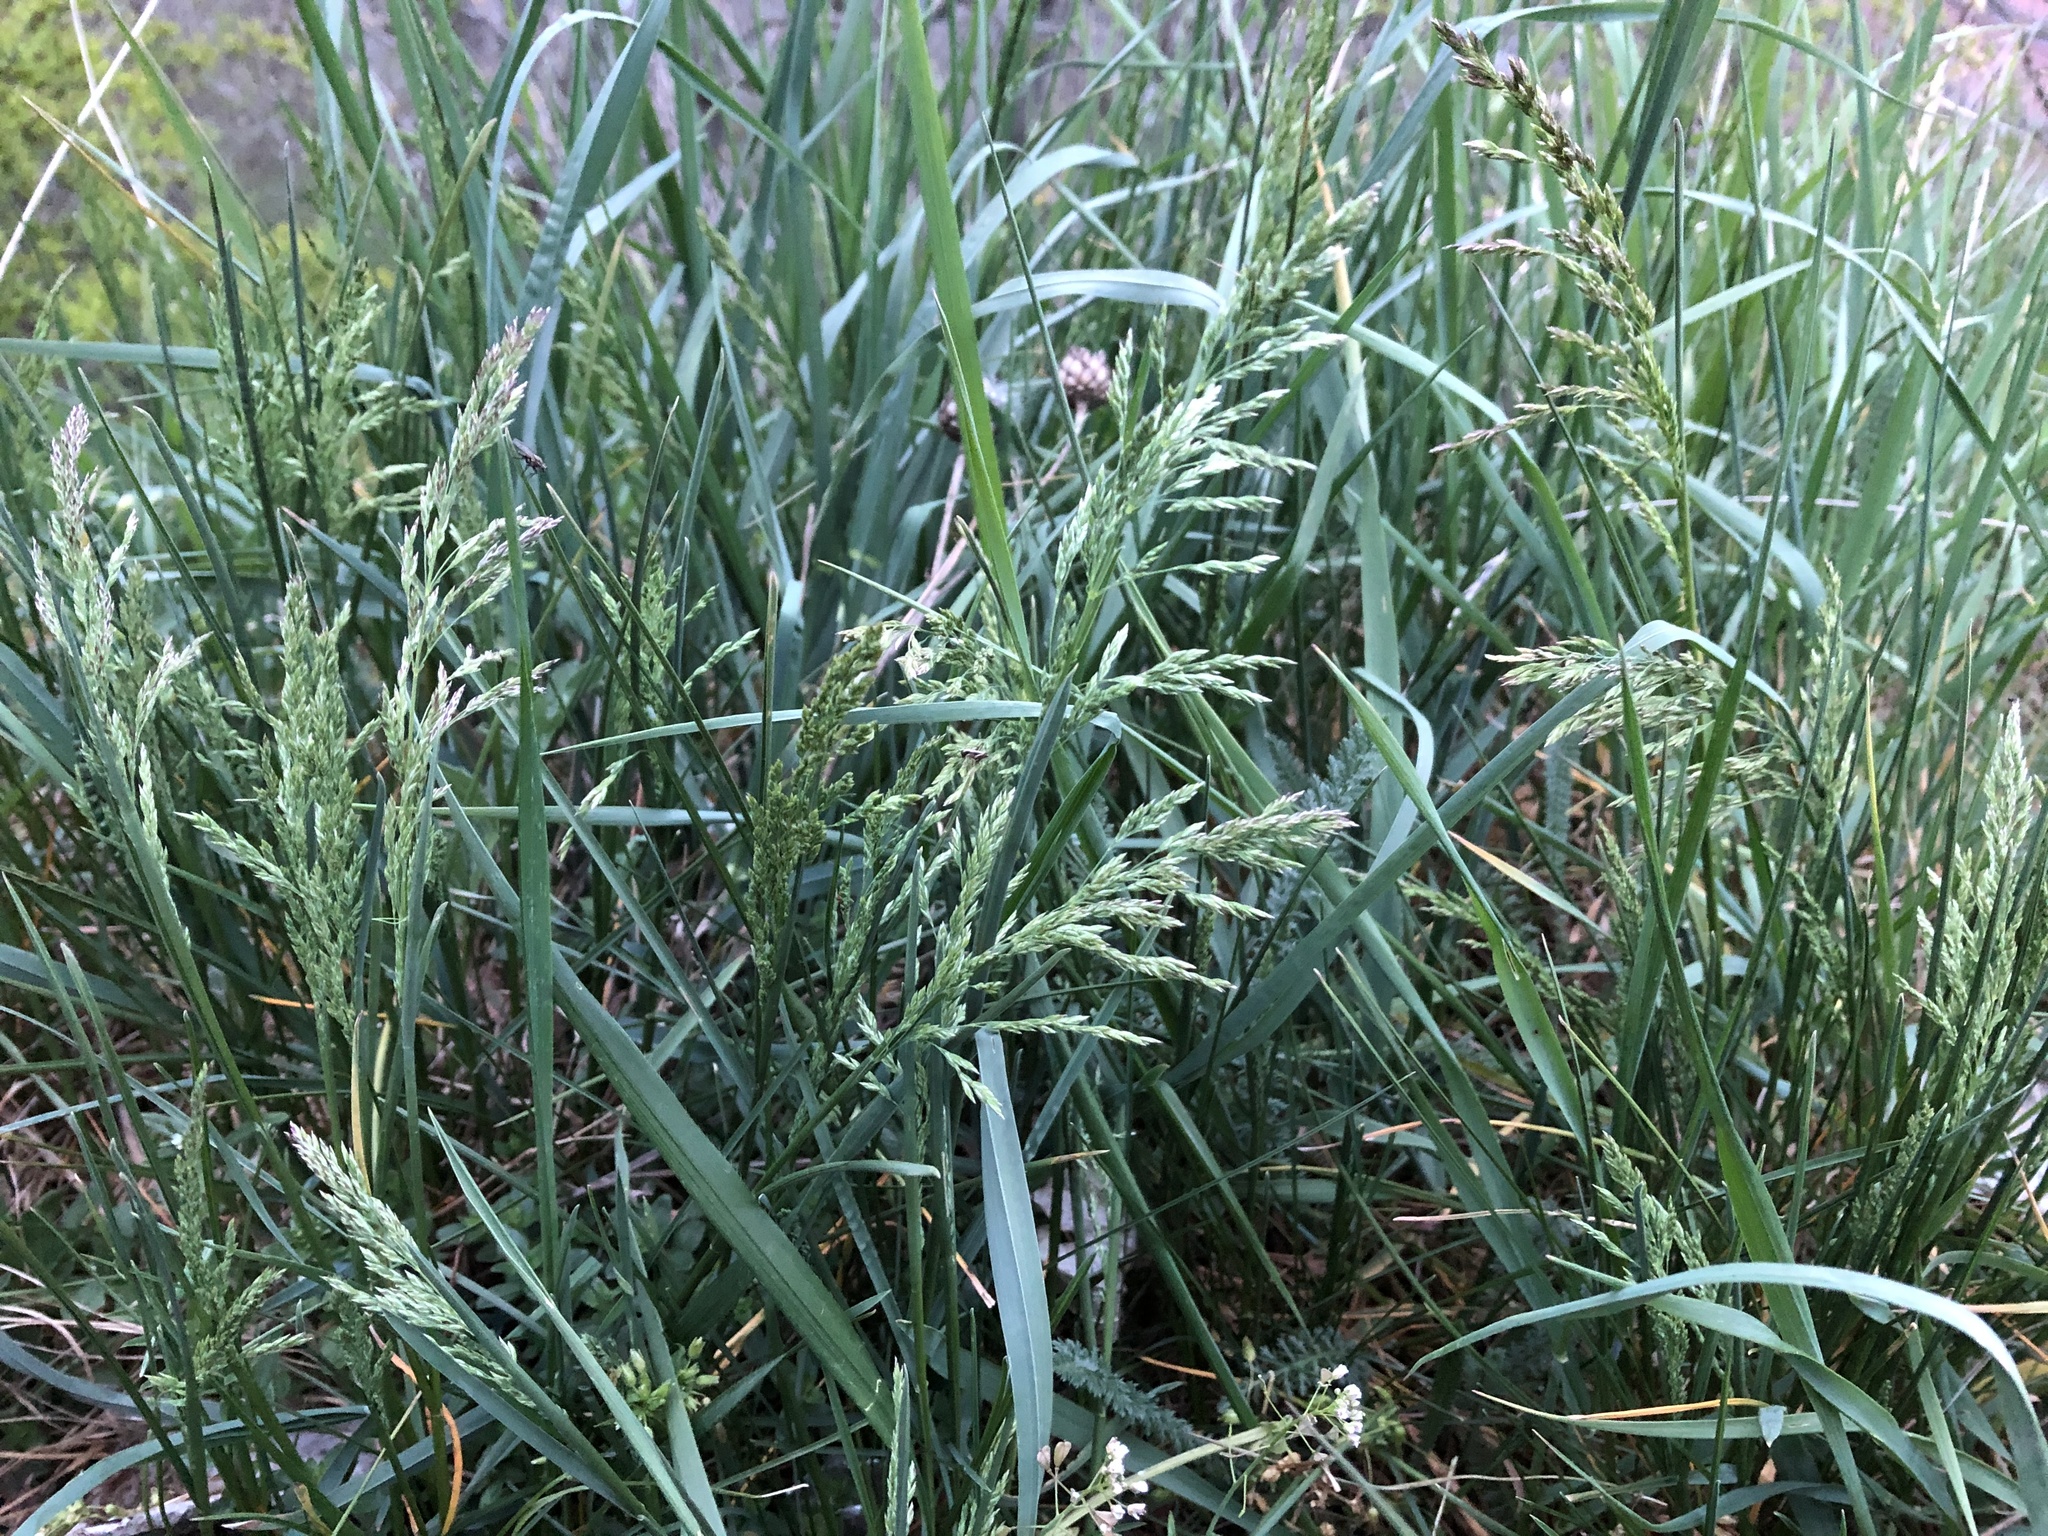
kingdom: Plantae
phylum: Tracheophyta
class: Liliopsida
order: Poales
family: Poaceae
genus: Poa
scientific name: Poa pratensis
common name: Kentucky bluegrass
